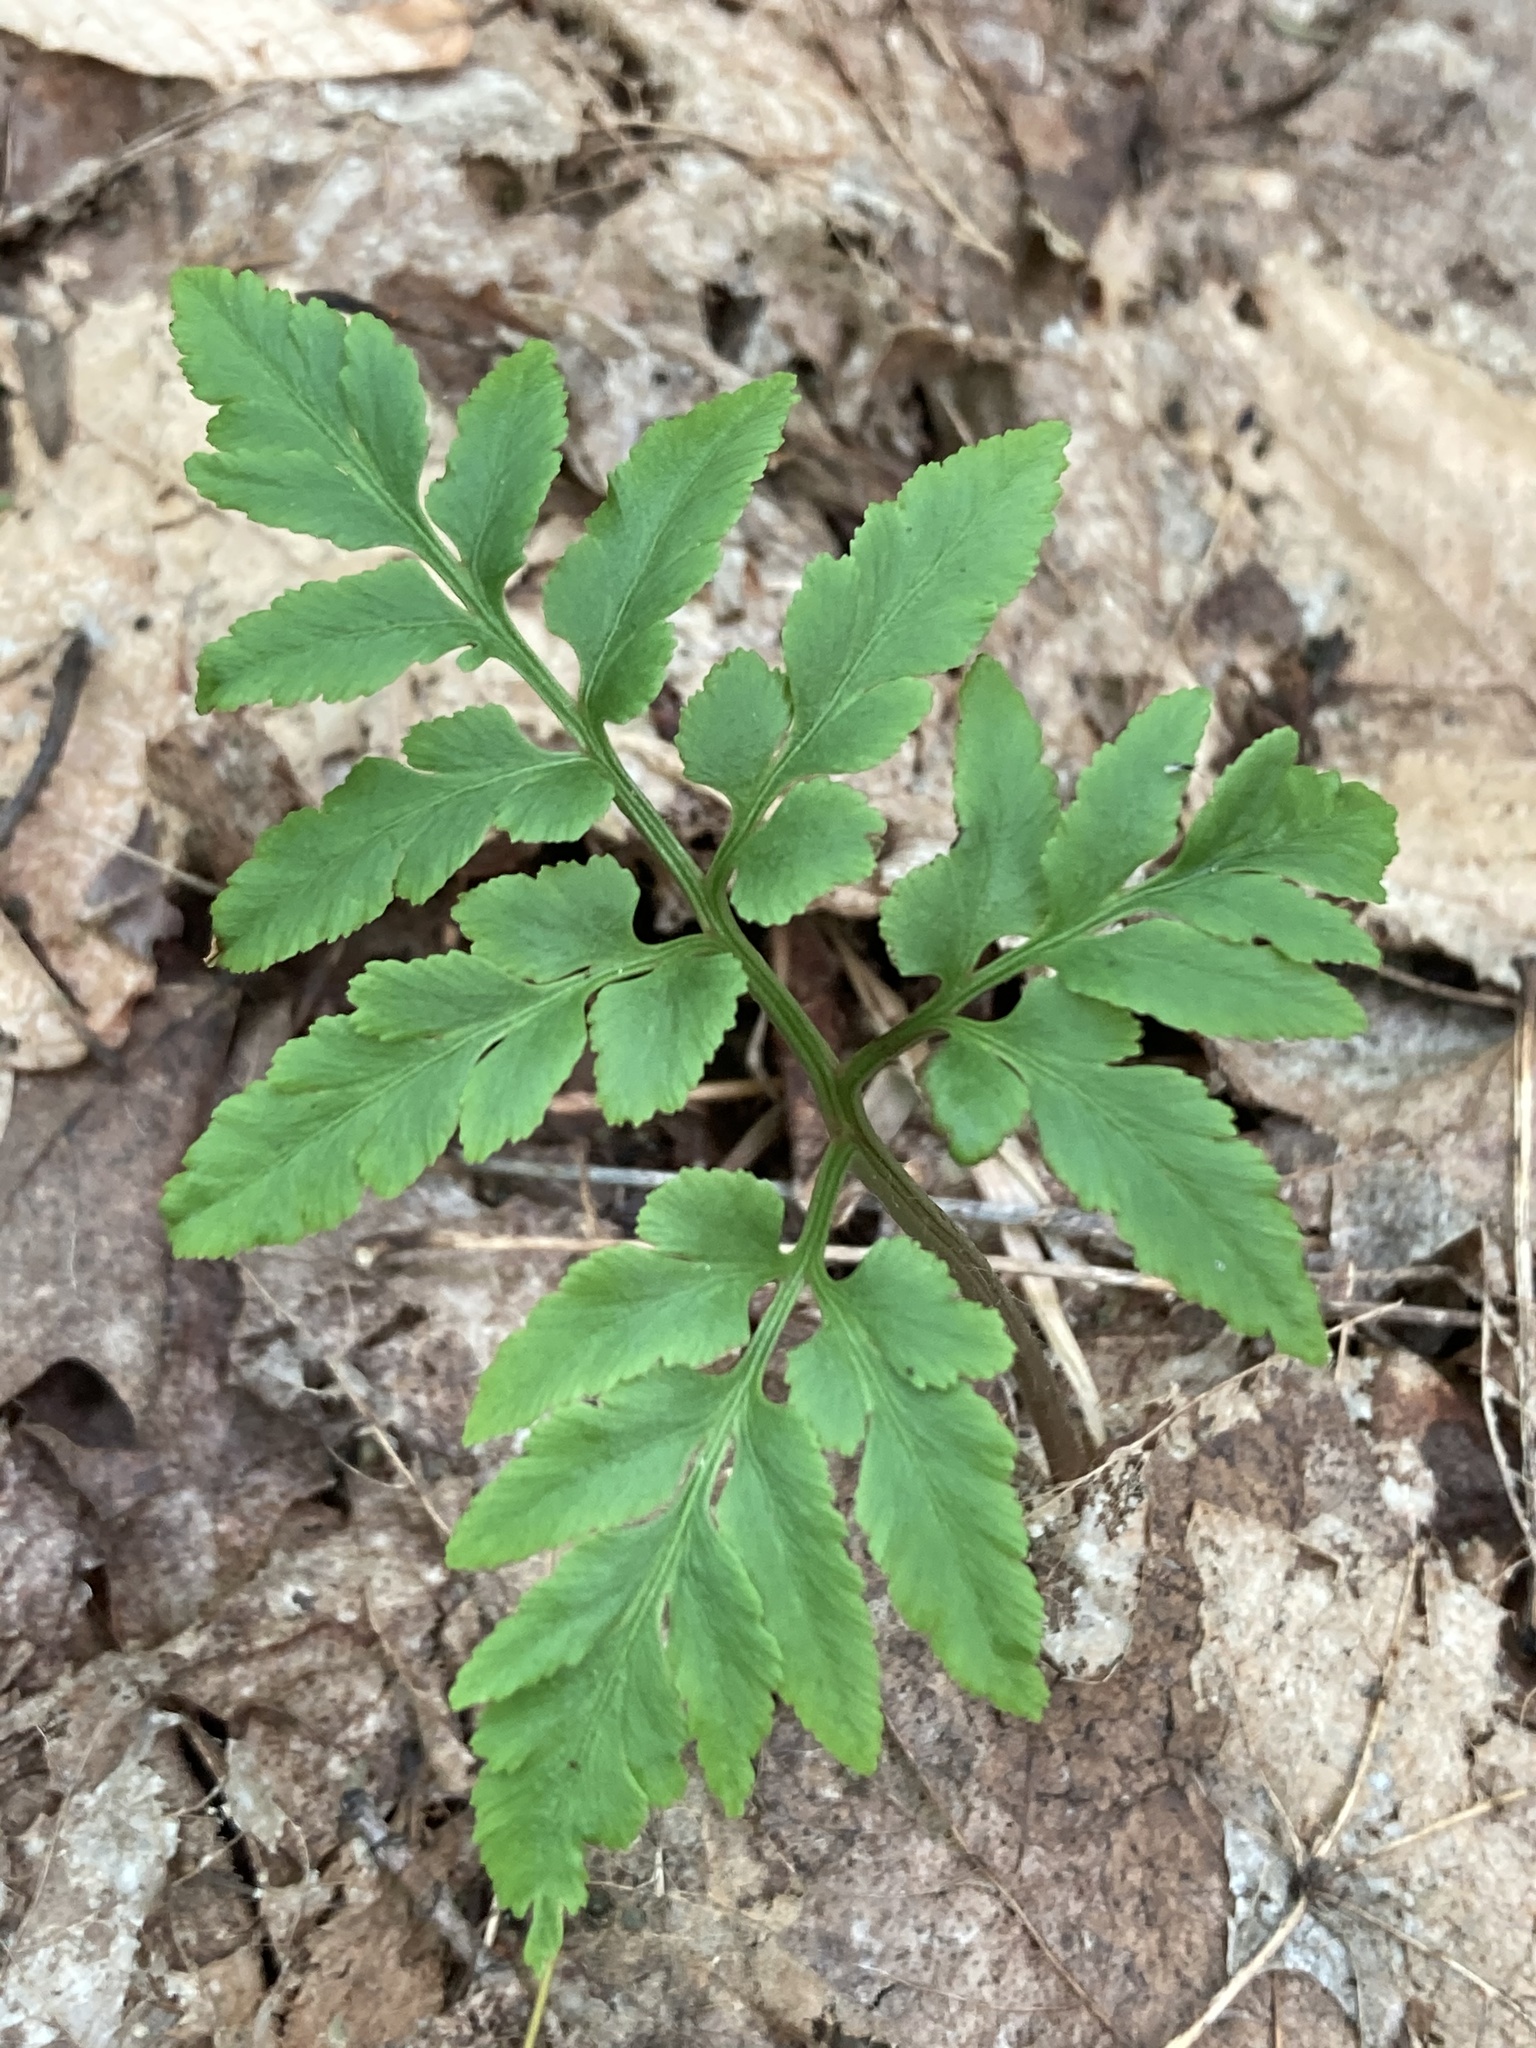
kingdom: Plantae
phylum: Tracheophyta
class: Polypodiopsida
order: Ophioglossales
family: Ophioglossaceae
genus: Sceptridium
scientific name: Sceptridium dissectum
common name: Cut-leaved grapefern
